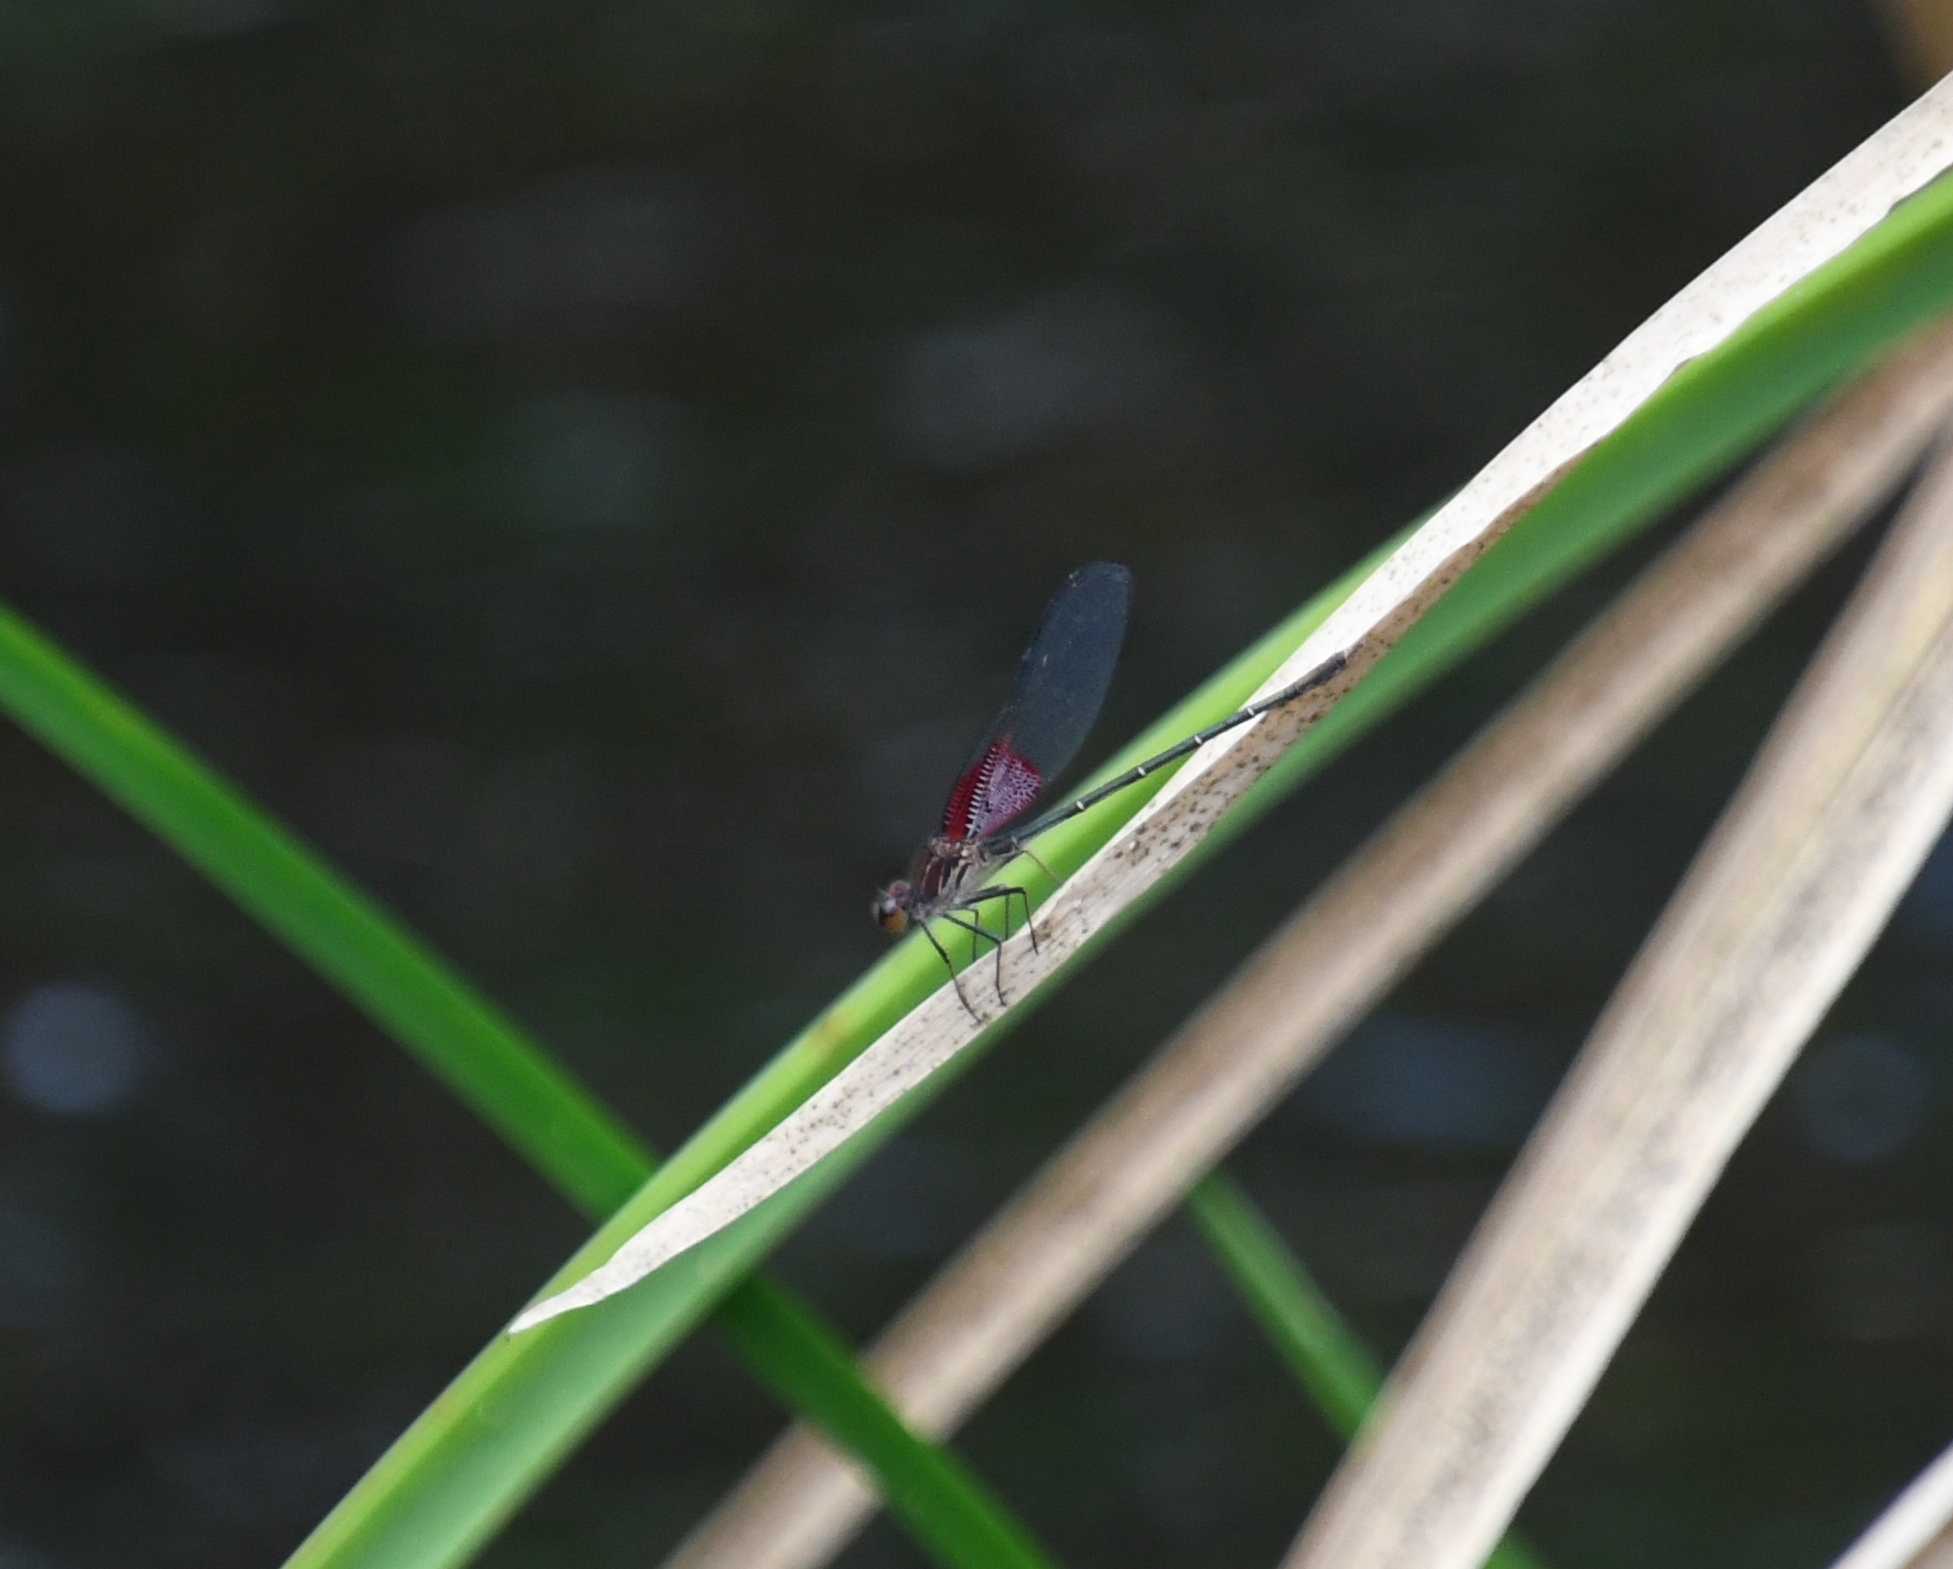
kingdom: Animalia
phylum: Arthropoda
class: Insecta
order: Odonata
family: Calopterygidae
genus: Hetaerina
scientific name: Hetaerina americana
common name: American rubyspot
